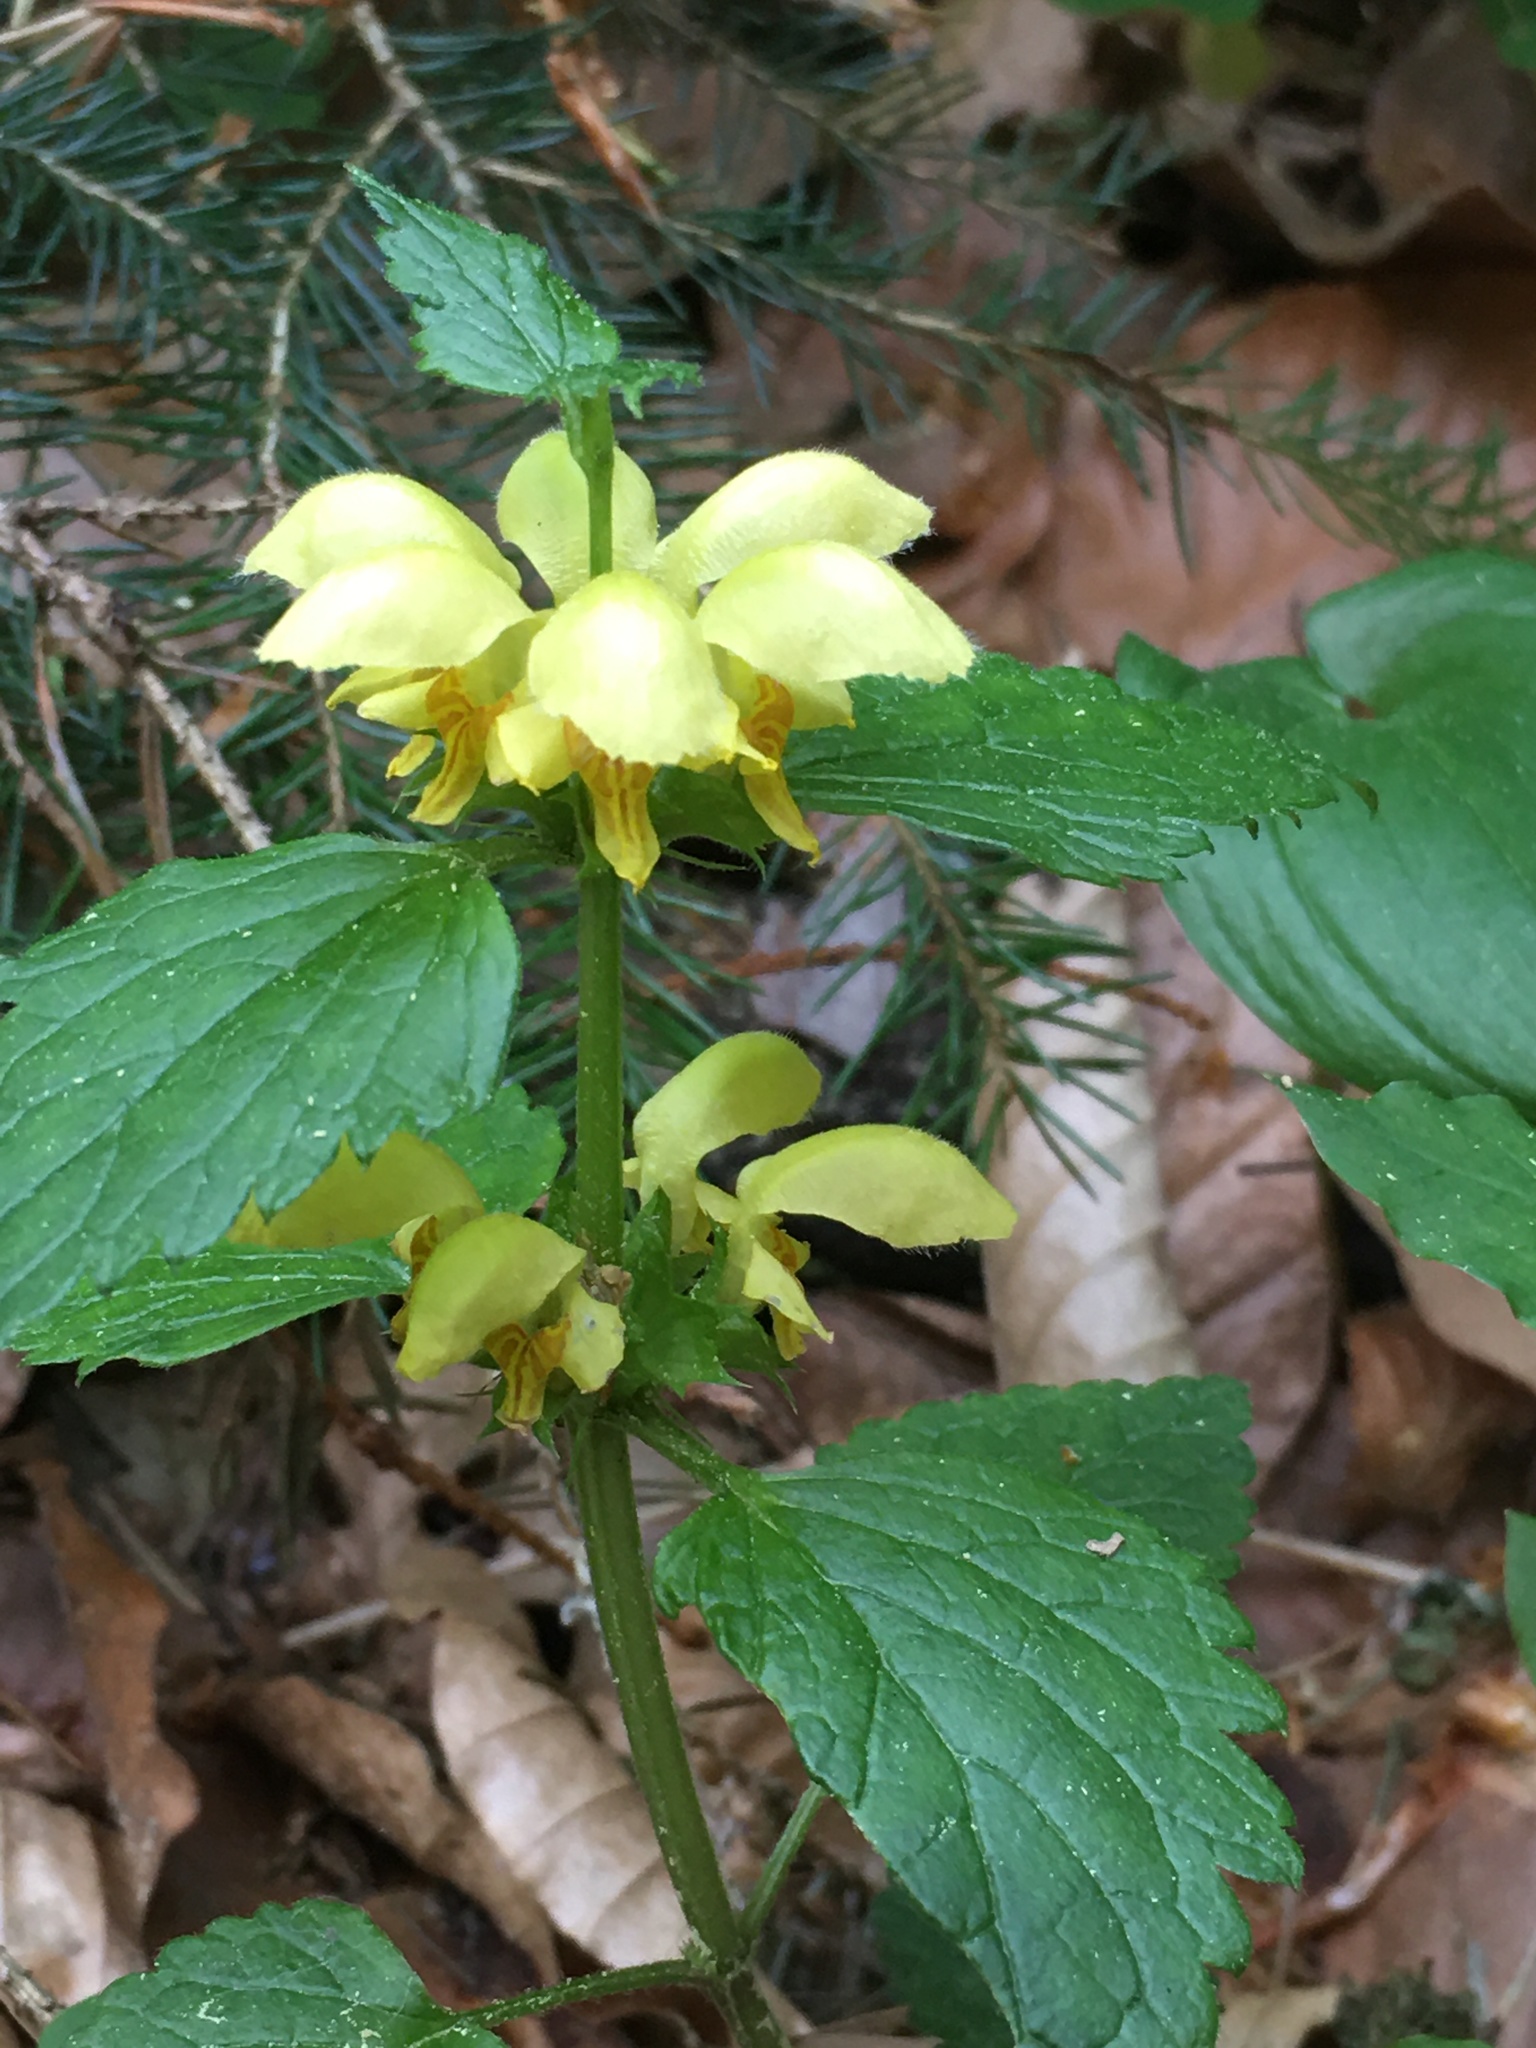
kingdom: Plantae
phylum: Tracheophyta
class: Magnoliopsida
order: Lamiales
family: Lamiaceae
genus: Lamium
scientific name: Lamium galeobdolon
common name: Yellow archangel
